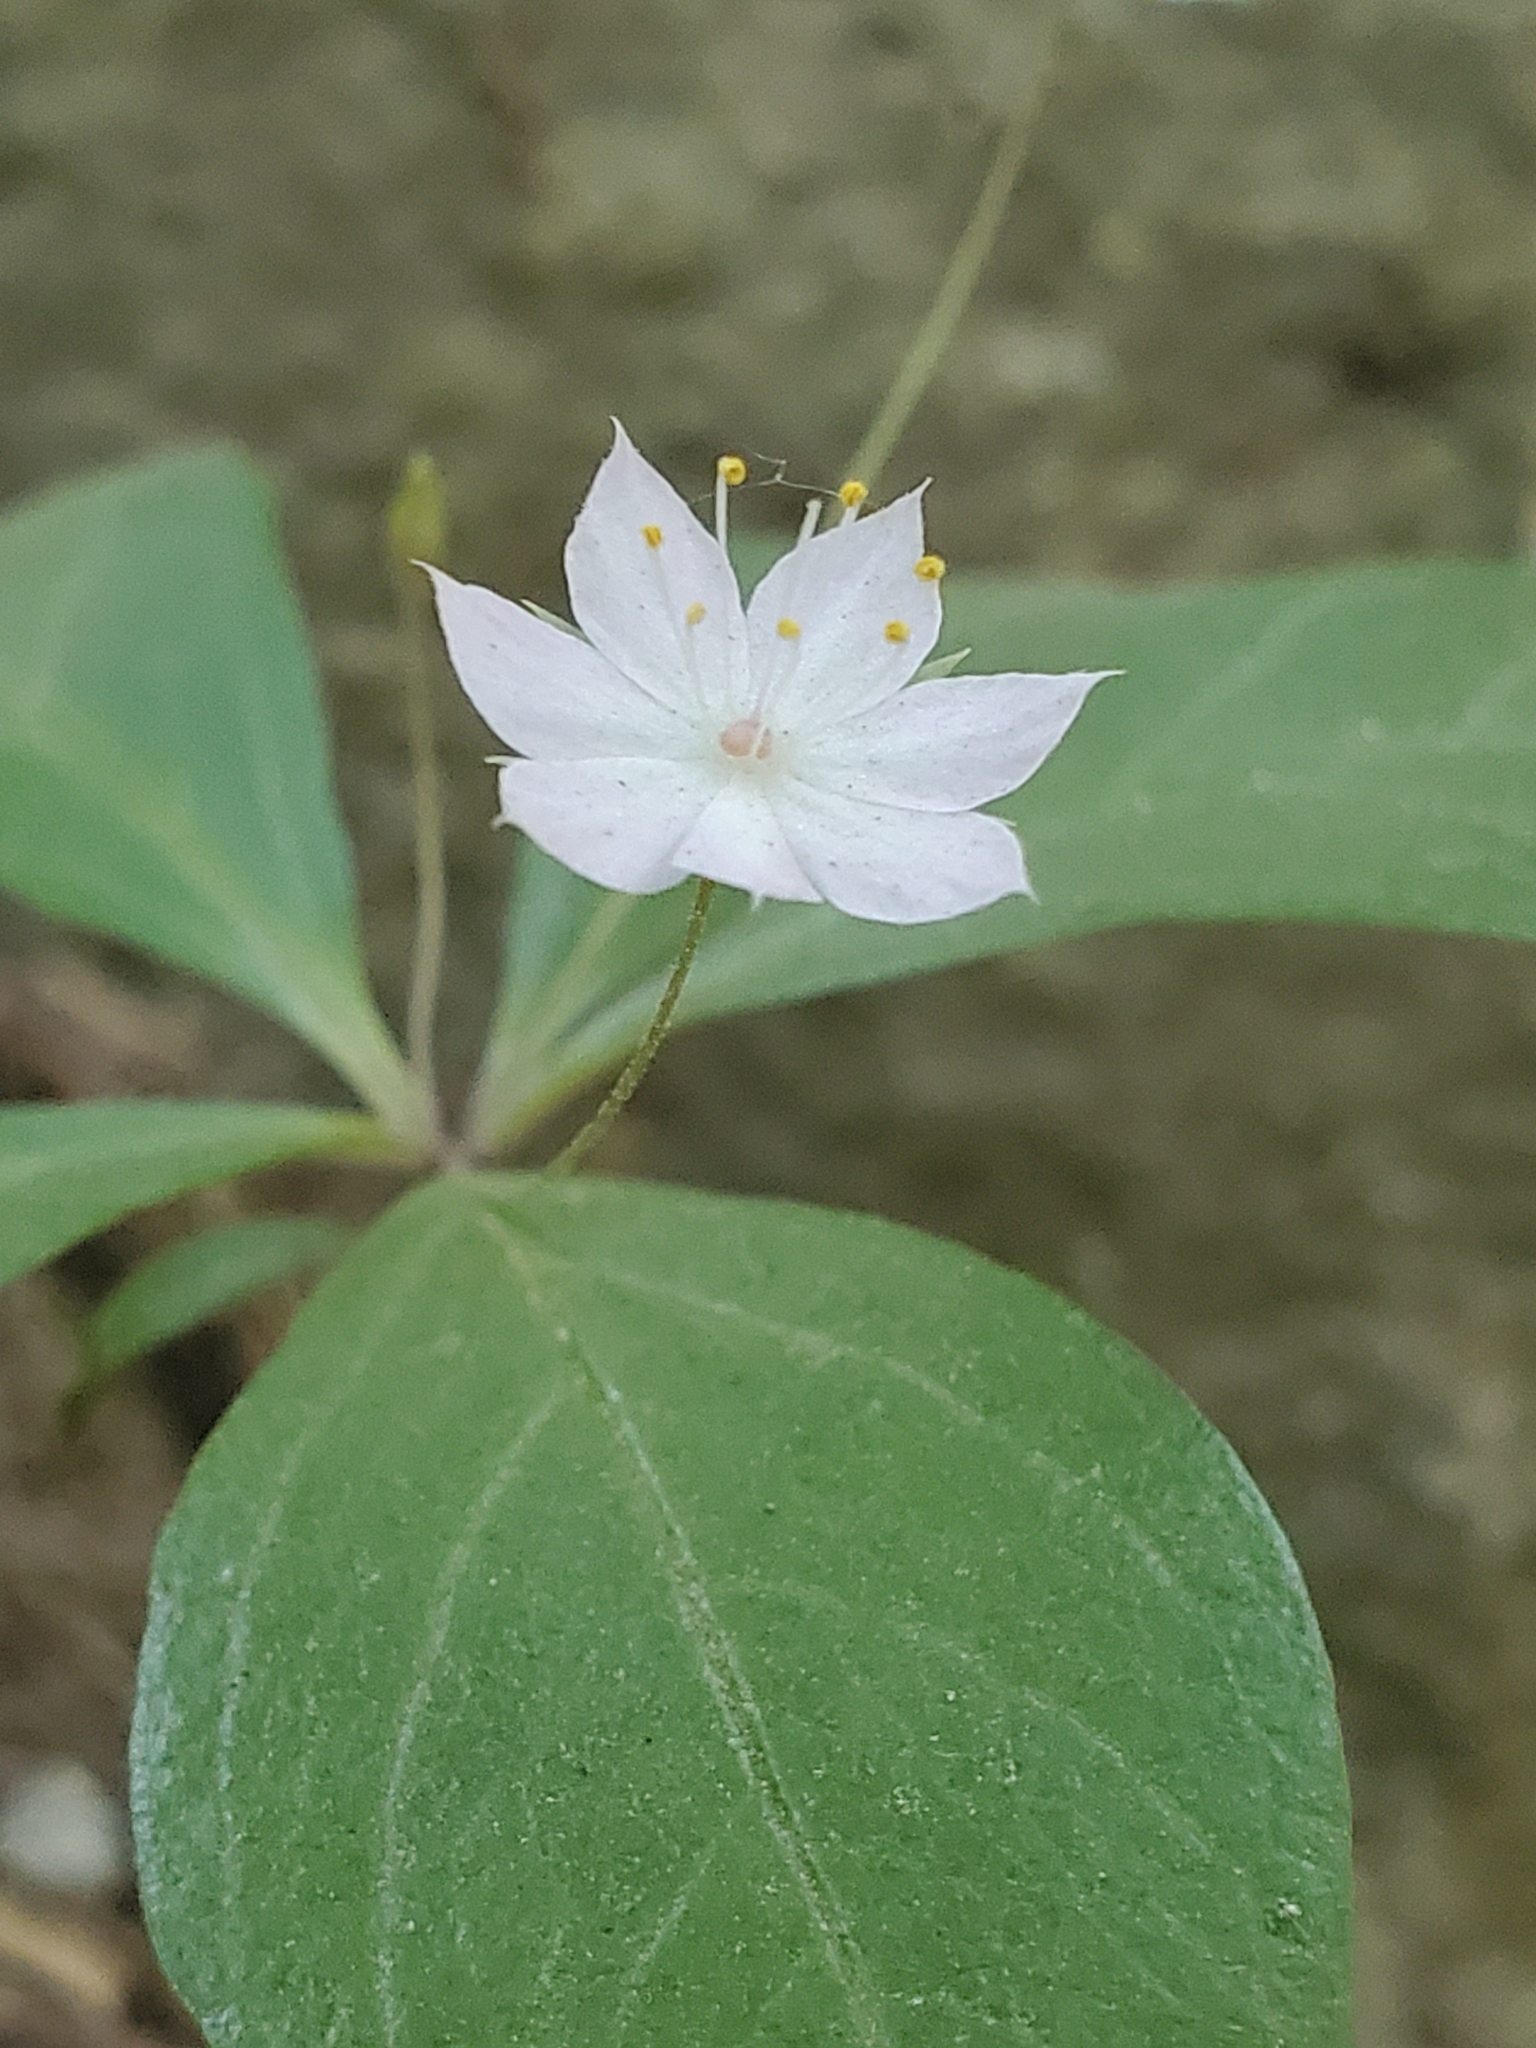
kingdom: Plantae
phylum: Tracheophyta
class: Magnoliopsida
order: Ericales
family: Primulaceae
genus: Lysimachia
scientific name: Lysimachia latifolia
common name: Pacific starflower
